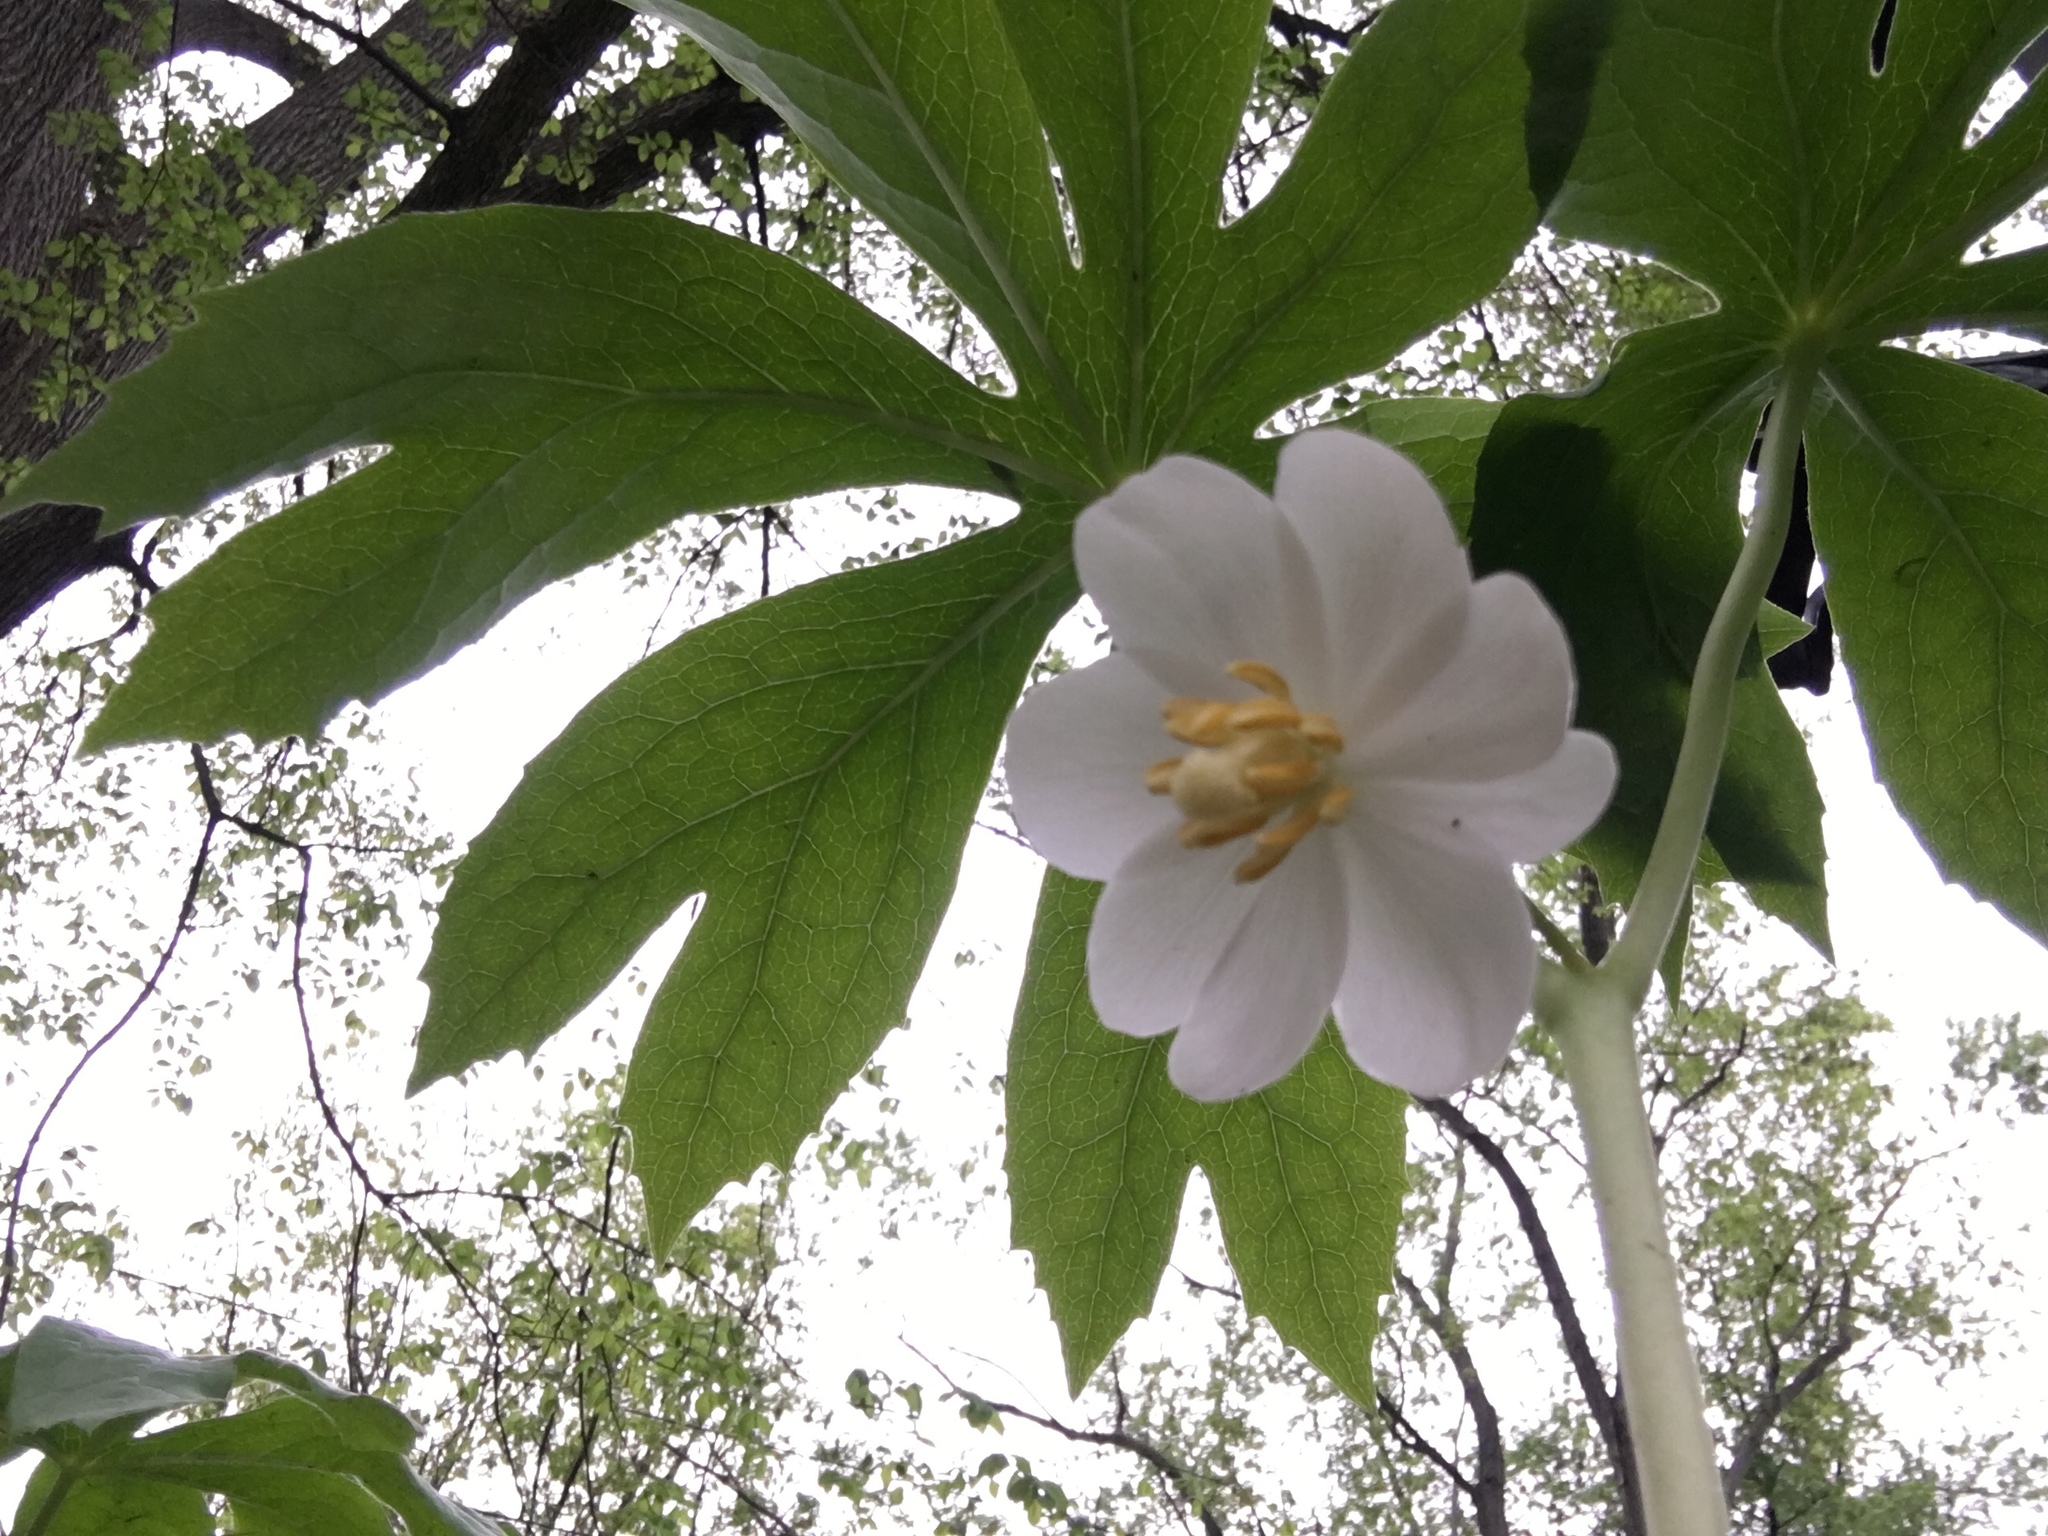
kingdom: Plantae
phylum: Tracheophyta
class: Magnoliopsida
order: Ranunculales
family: Berberidaceae
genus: Podophyllum
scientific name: Podophyllum peltatum
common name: Wild mandrake
